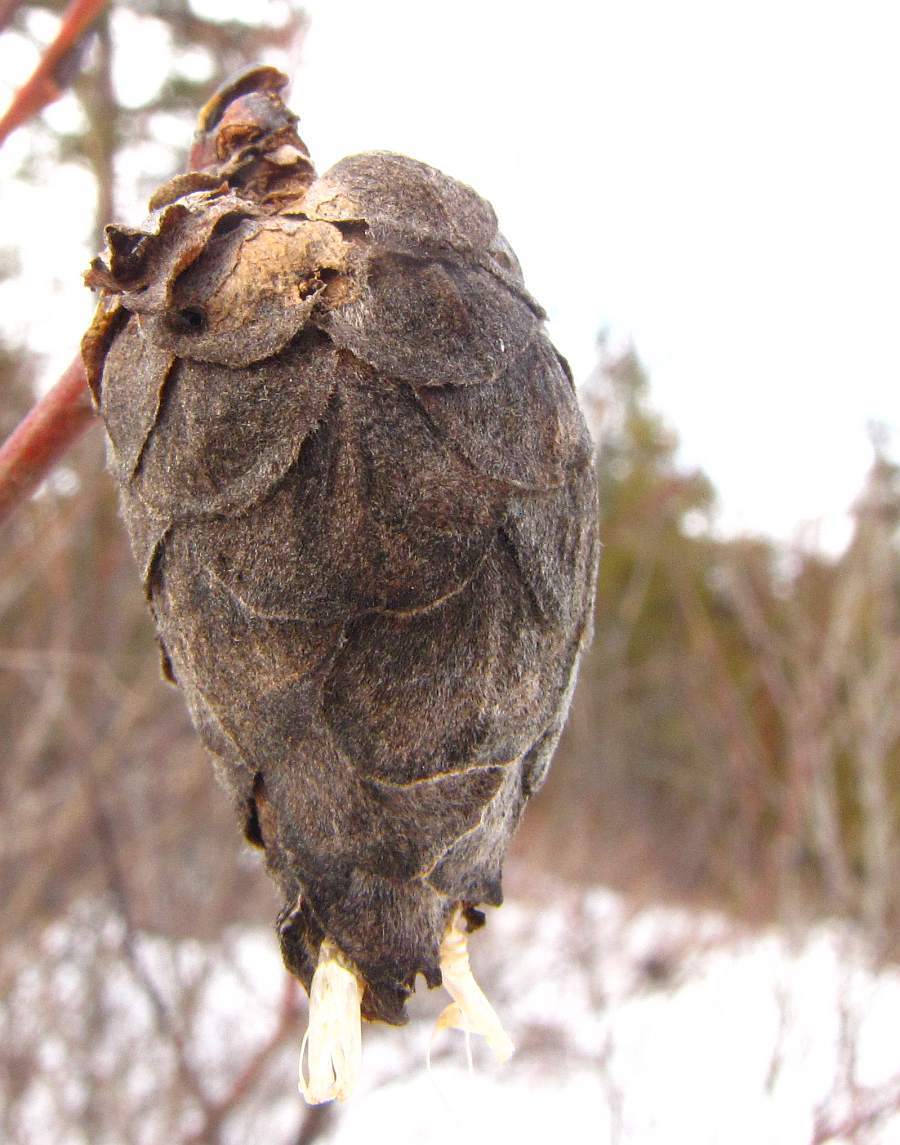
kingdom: Animalia
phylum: Arthropoda
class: Insecta
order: Diptera
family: Cecidomyiidae
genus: Rabdophaga
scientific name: Rabdophaga strobiloides
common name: Willow pinecone gall midge
